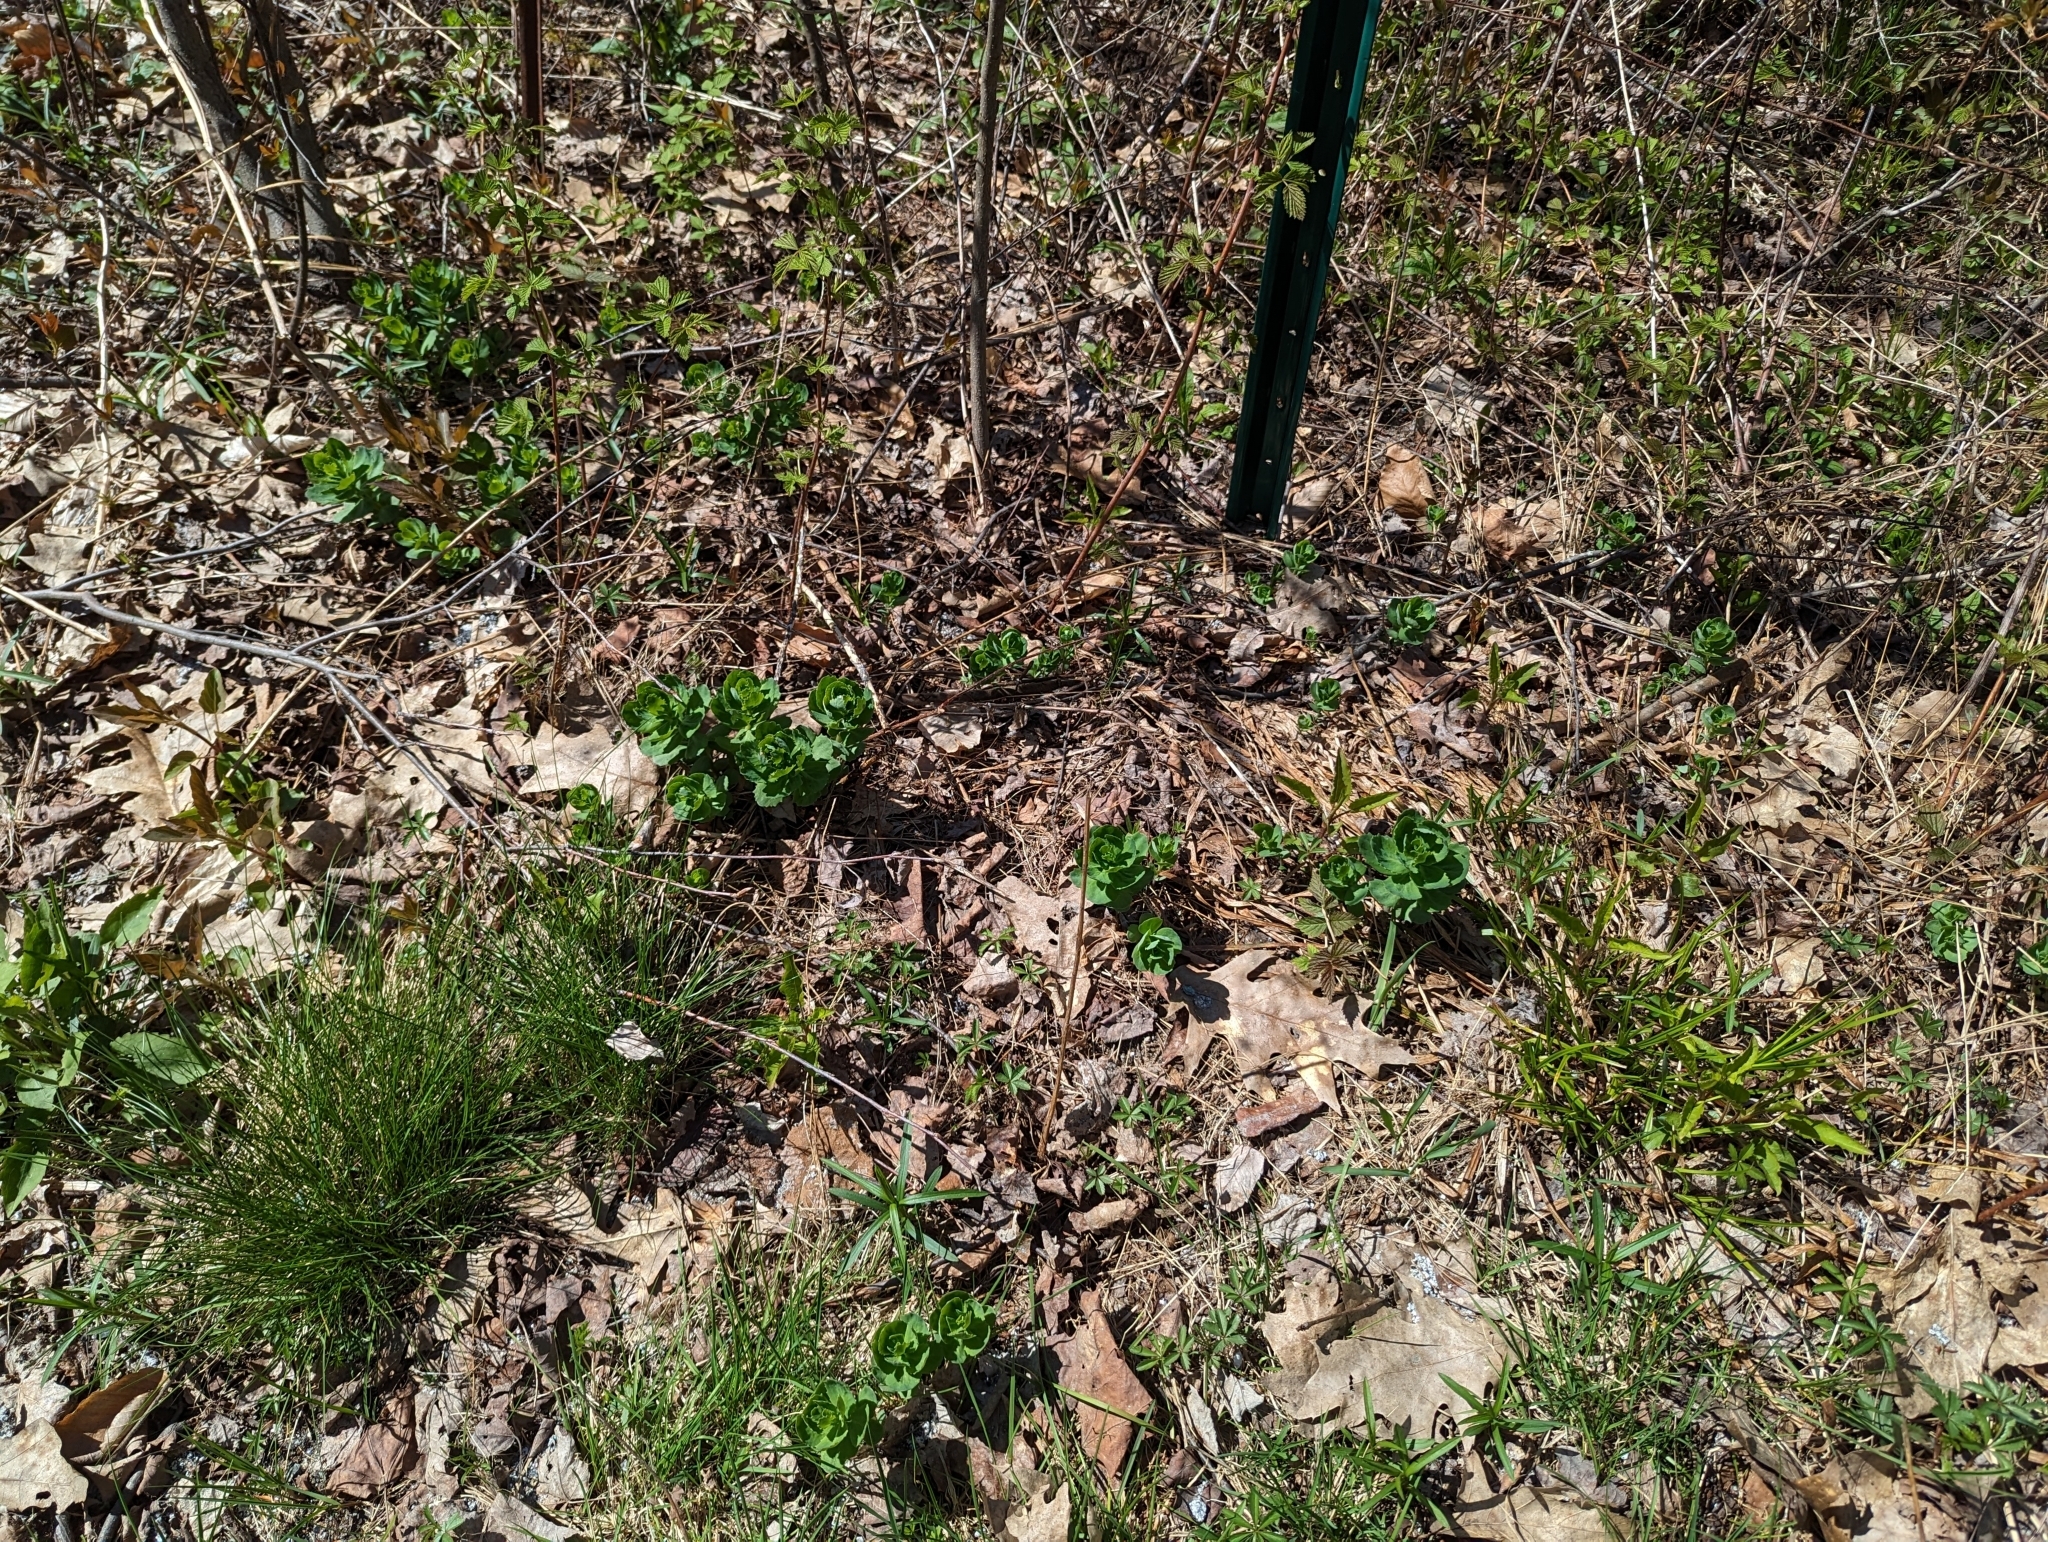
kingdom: Plantae
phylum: Tracheophyta
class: Magnoliopsida
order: Saxifragales
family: Crassulaceae
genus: Hylotelephium
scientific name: Hylotelephium telephium
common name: Live-forever
